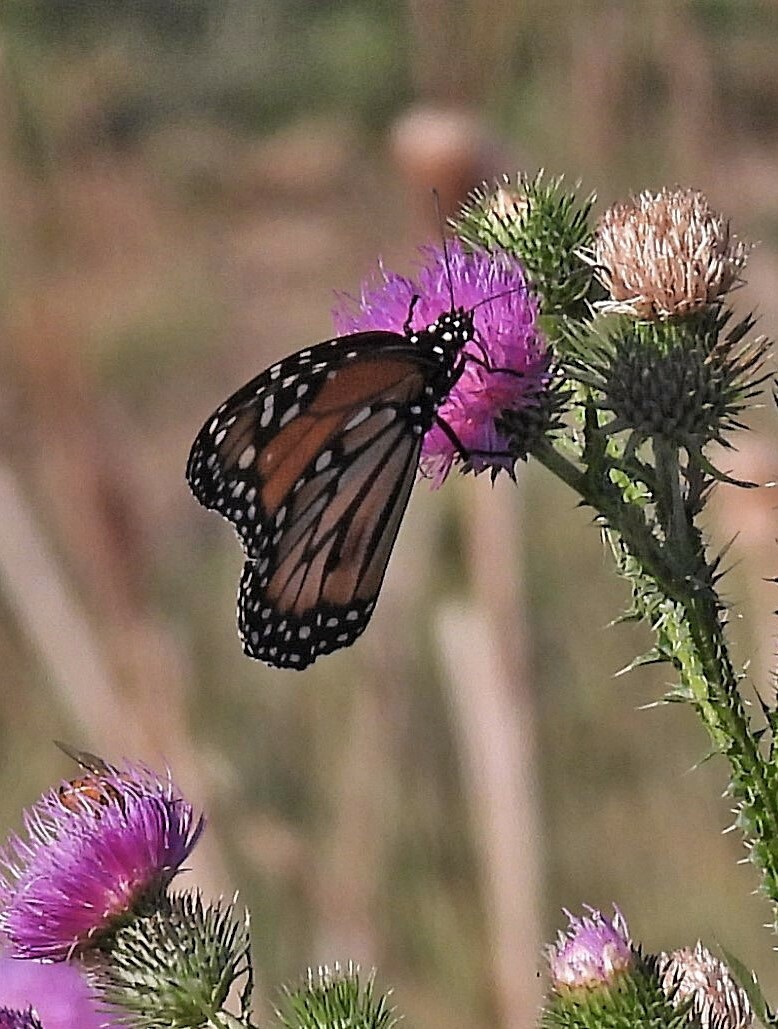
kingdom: Animalia
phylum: Arthropoda
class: Insecta
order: Lepidoptera
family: Nymphalidae
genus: Danaus
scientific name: Danaus erippus
